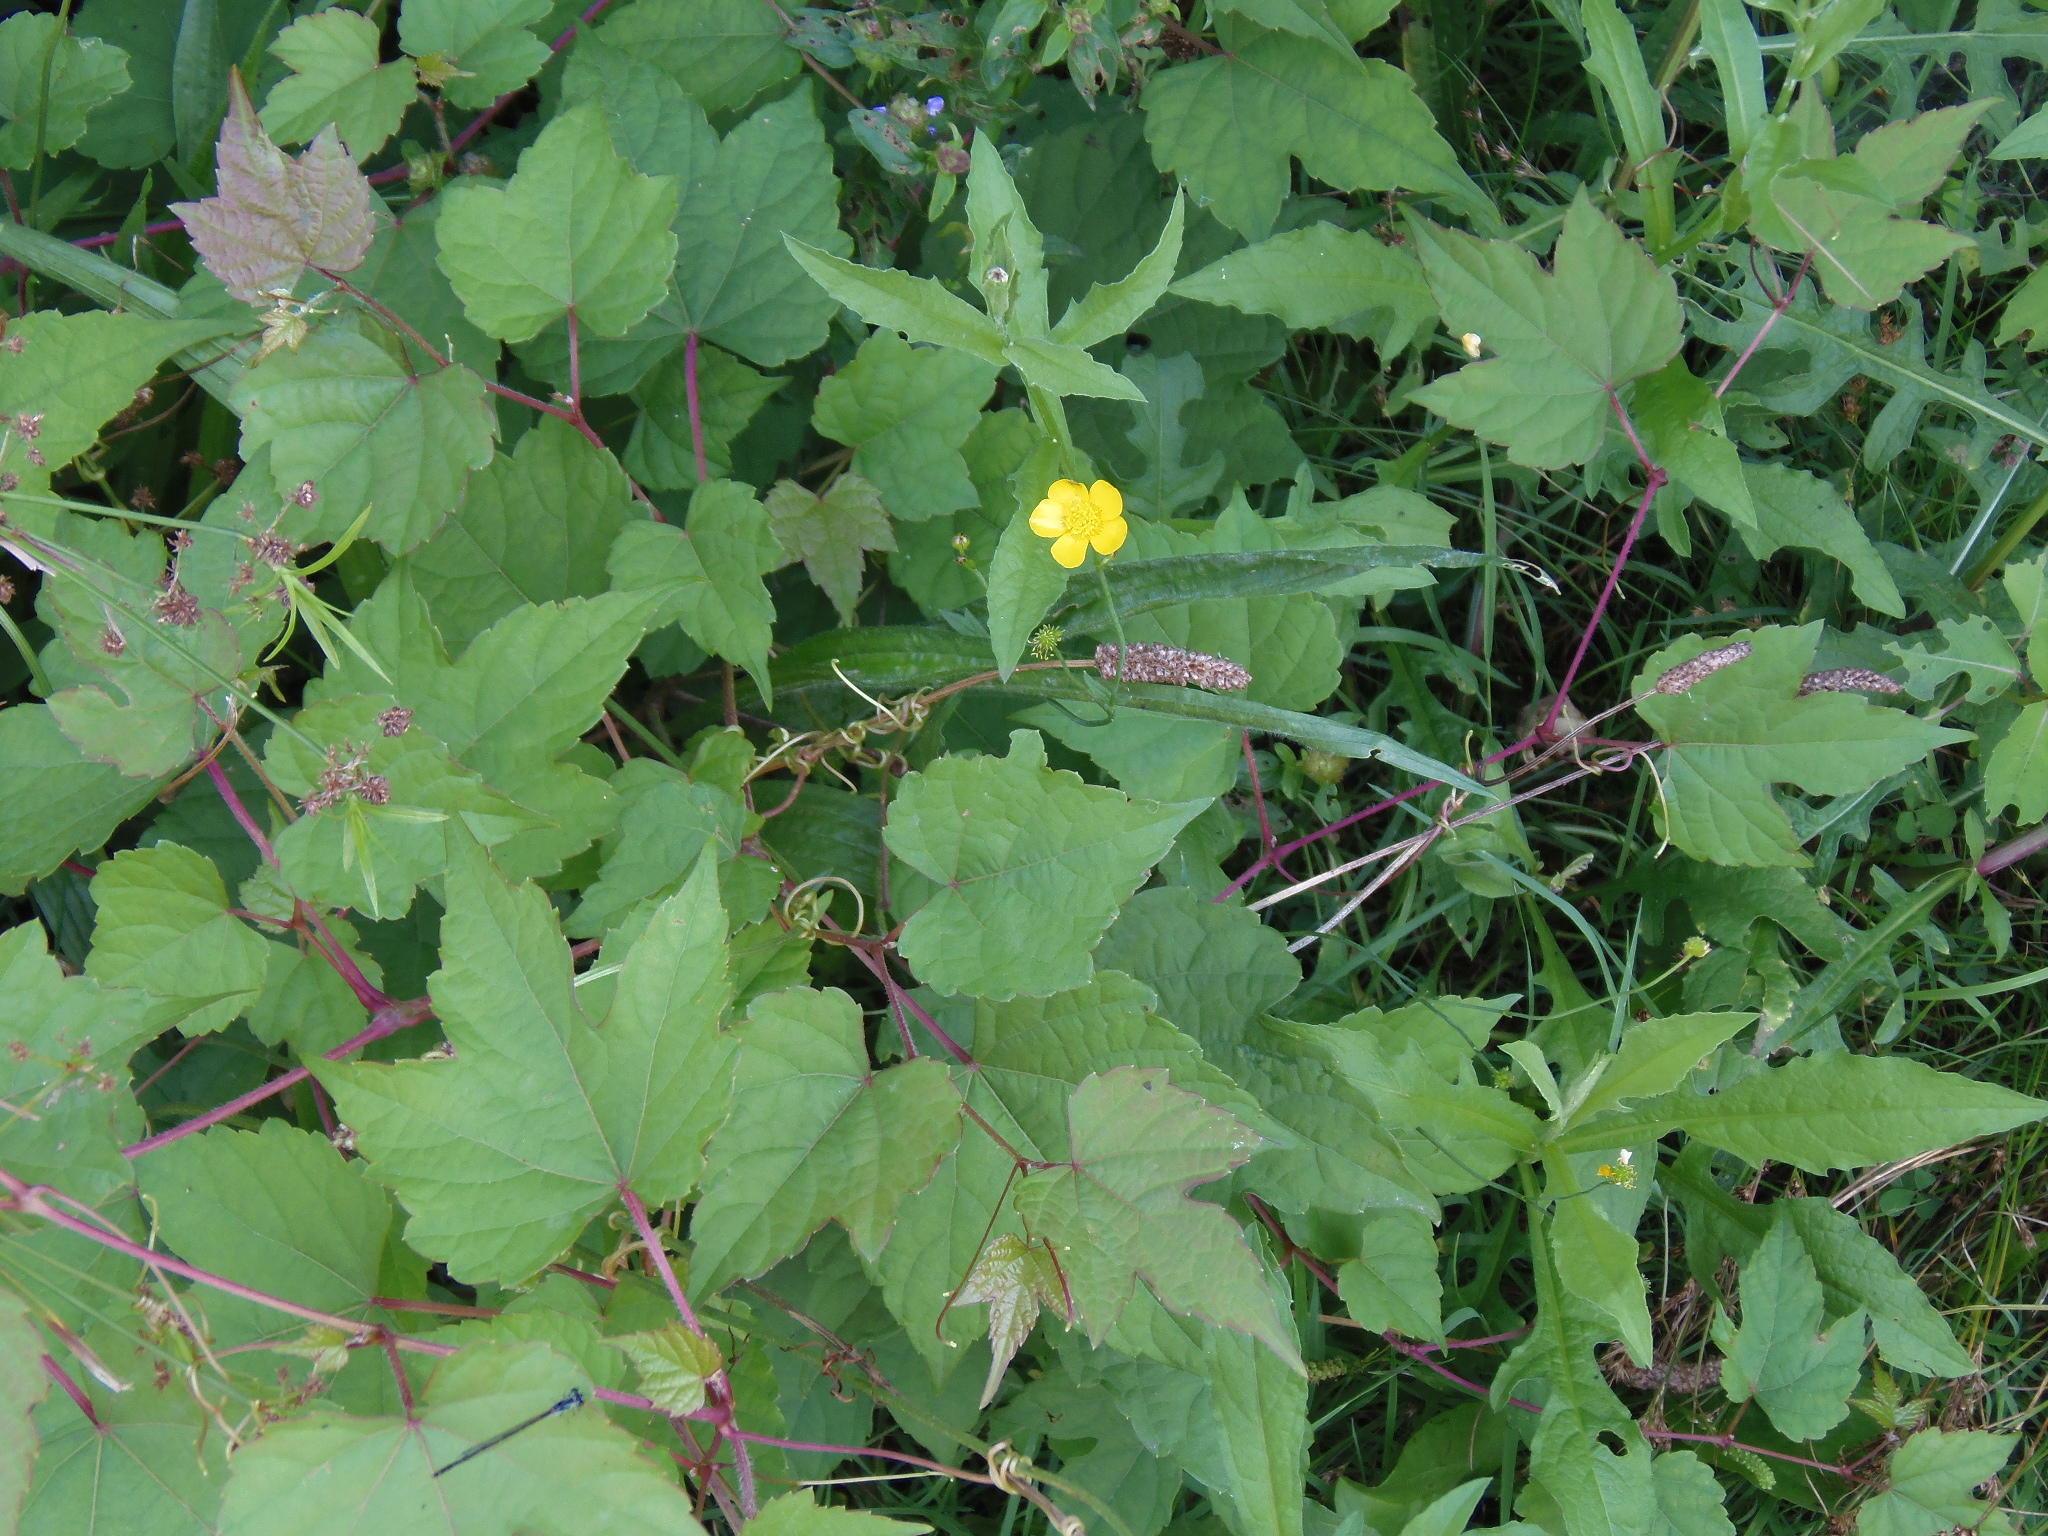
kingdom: Plantae
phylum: Tracheophyta
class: Magnoliopsida
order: Vitales
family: Vitaceae
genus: Ampelopsis
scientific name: Ampelopsis glandulosa
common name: Amur peppervine
